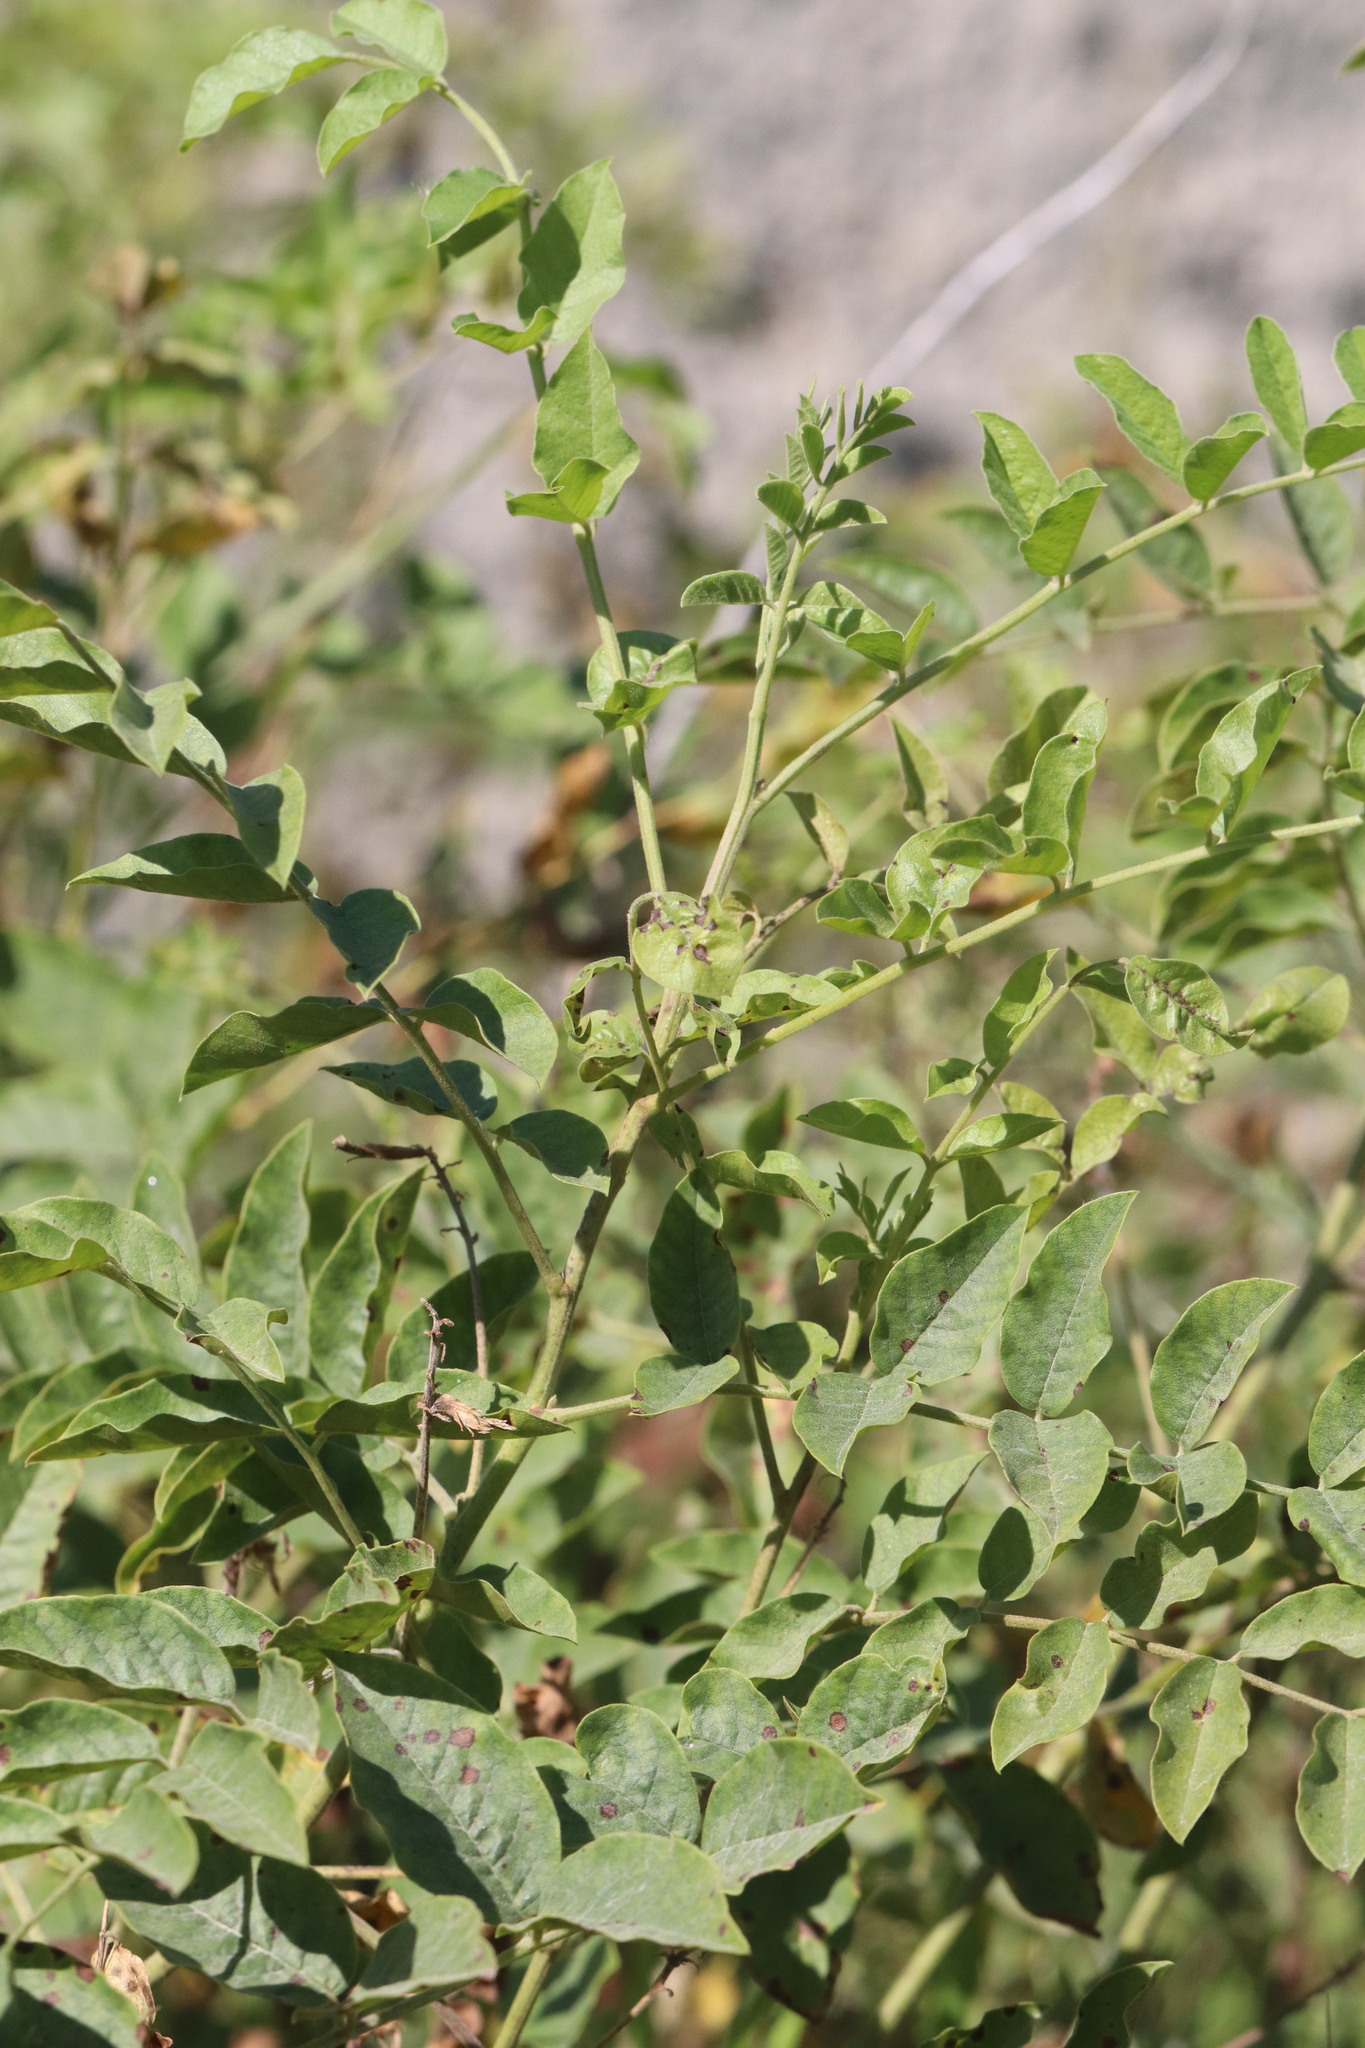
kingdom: Plantae
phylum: Tracheophyta
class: Magnoliopsida
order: Fabales
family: Fabaceae
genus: Glycyrrhiza
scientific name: Glycyrrhiza uralensis
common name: Chinese licorice
